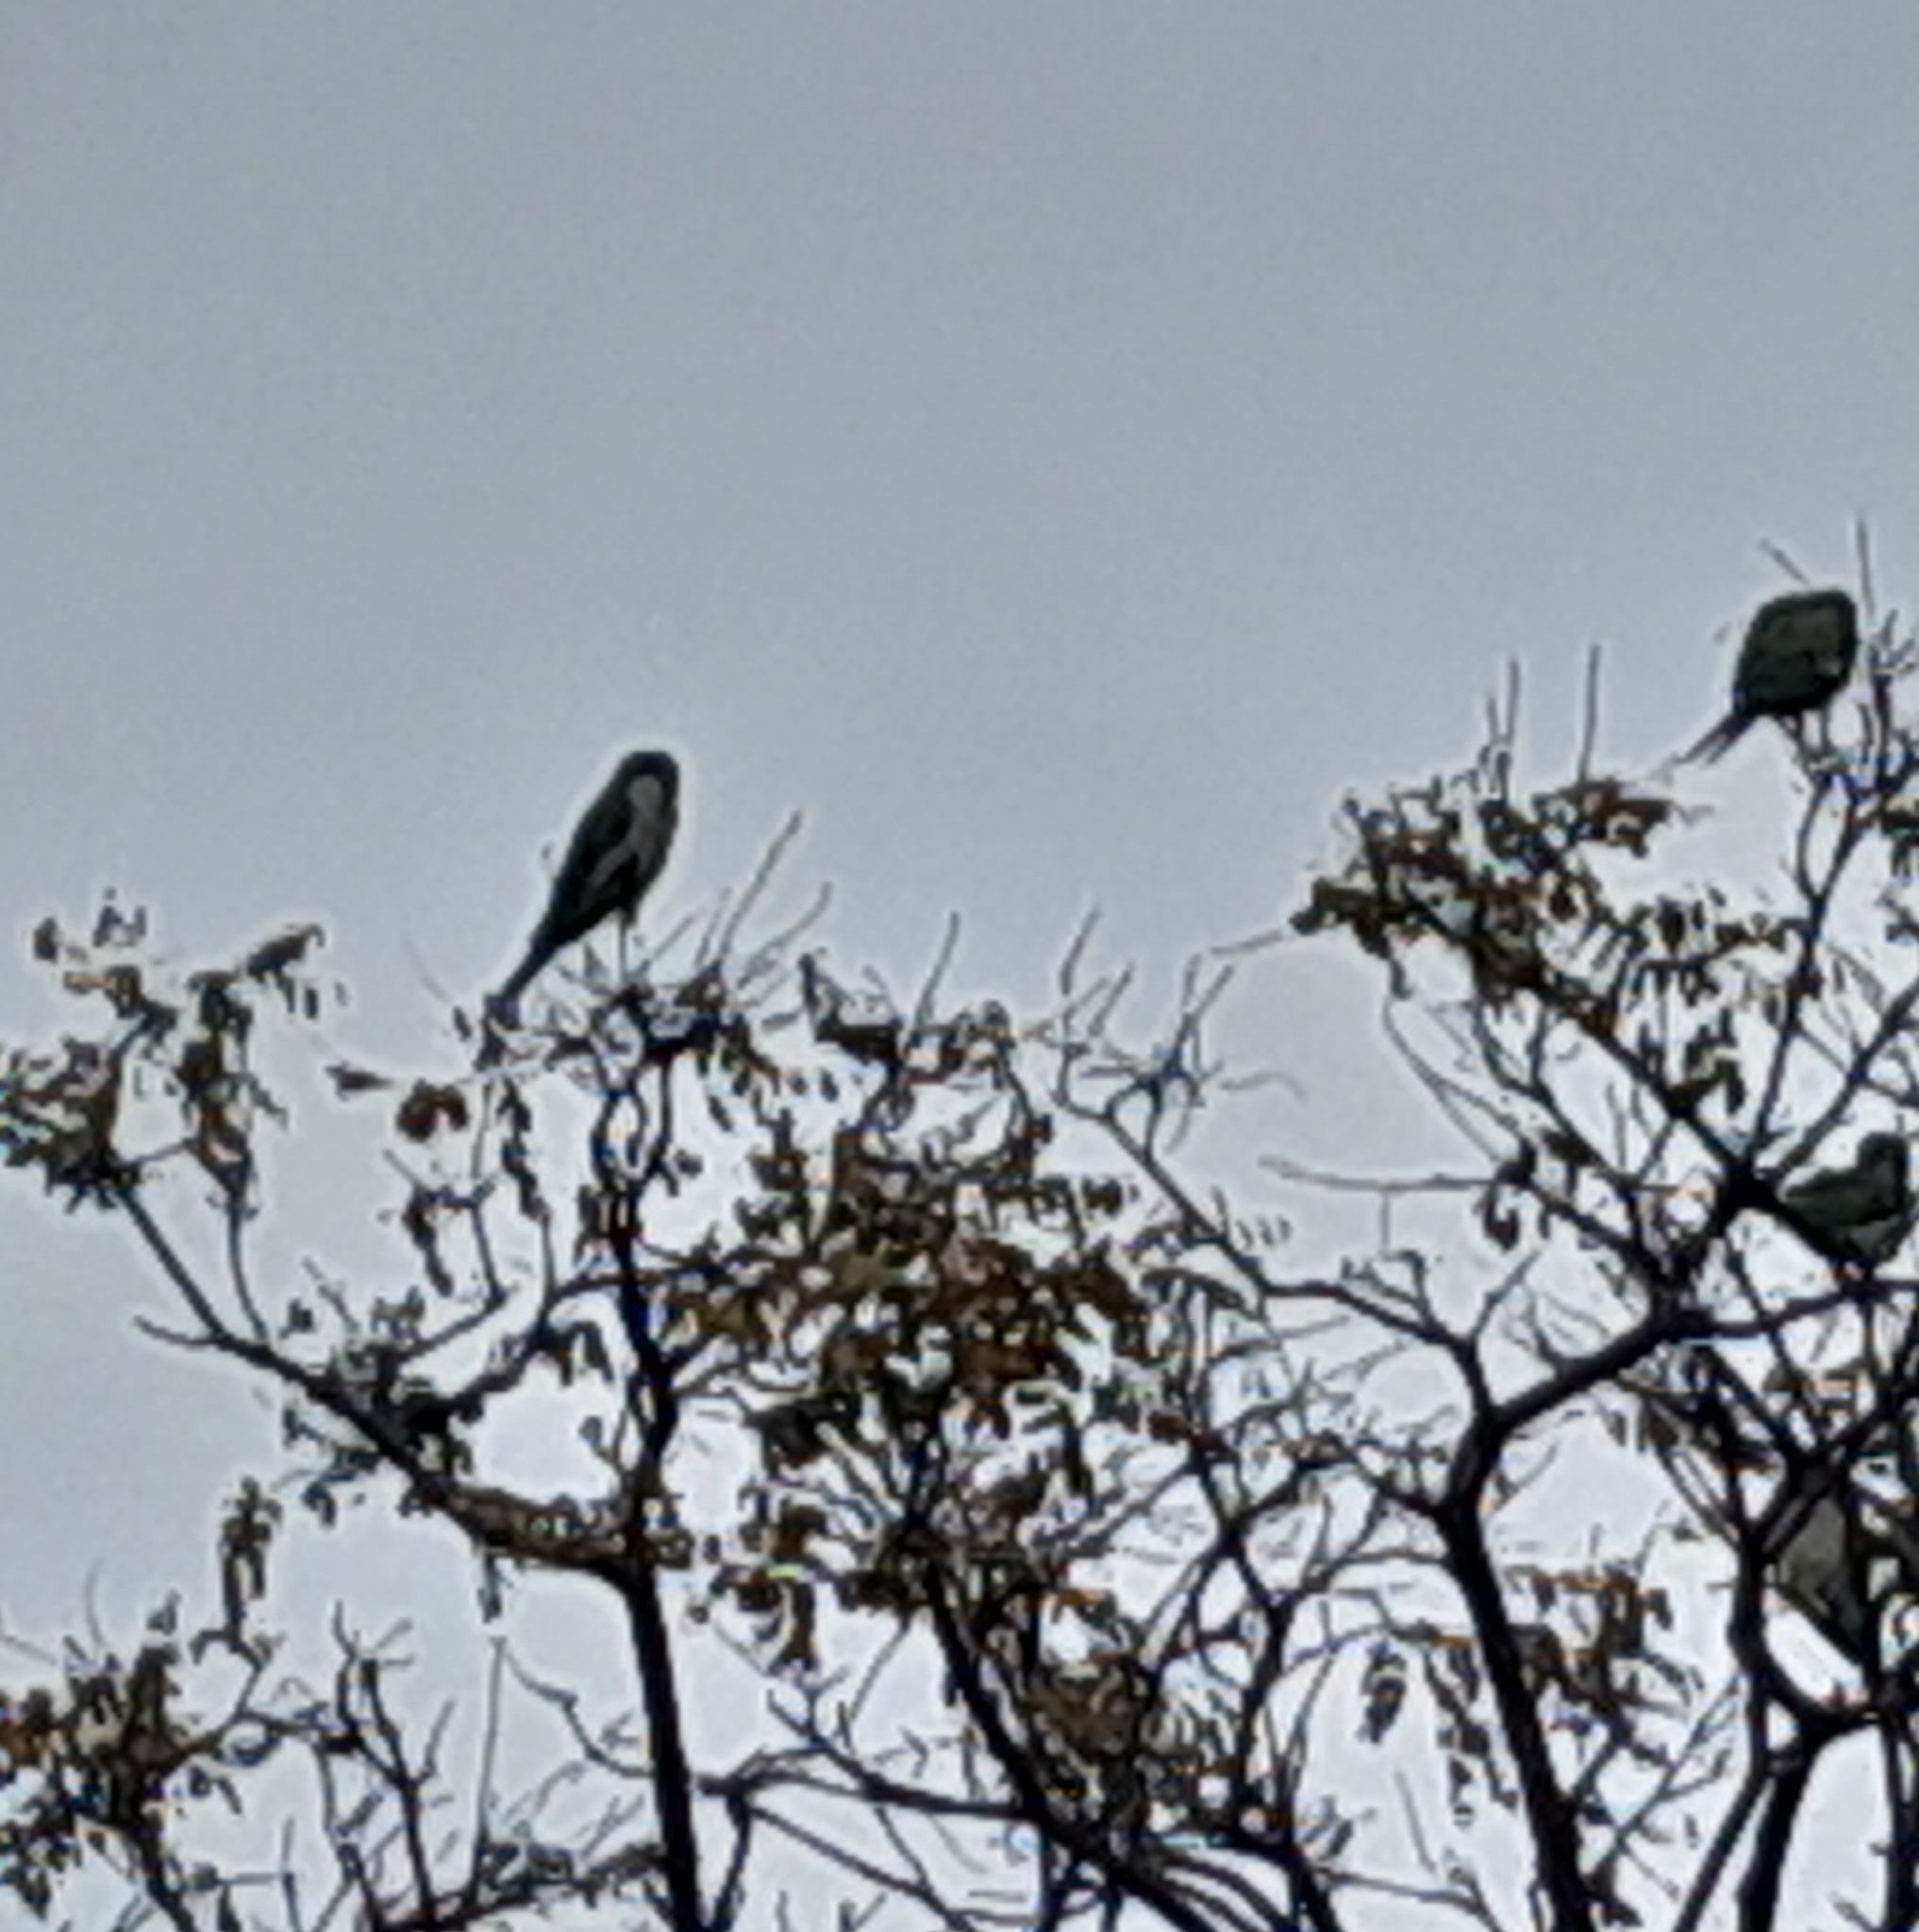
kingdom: Animalia
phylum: Chordata
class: Aves
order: Psittaciformes
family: Psittacidae
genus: Myiopsitta
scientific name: Myiopsitta monachus
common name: Monk parakeet
